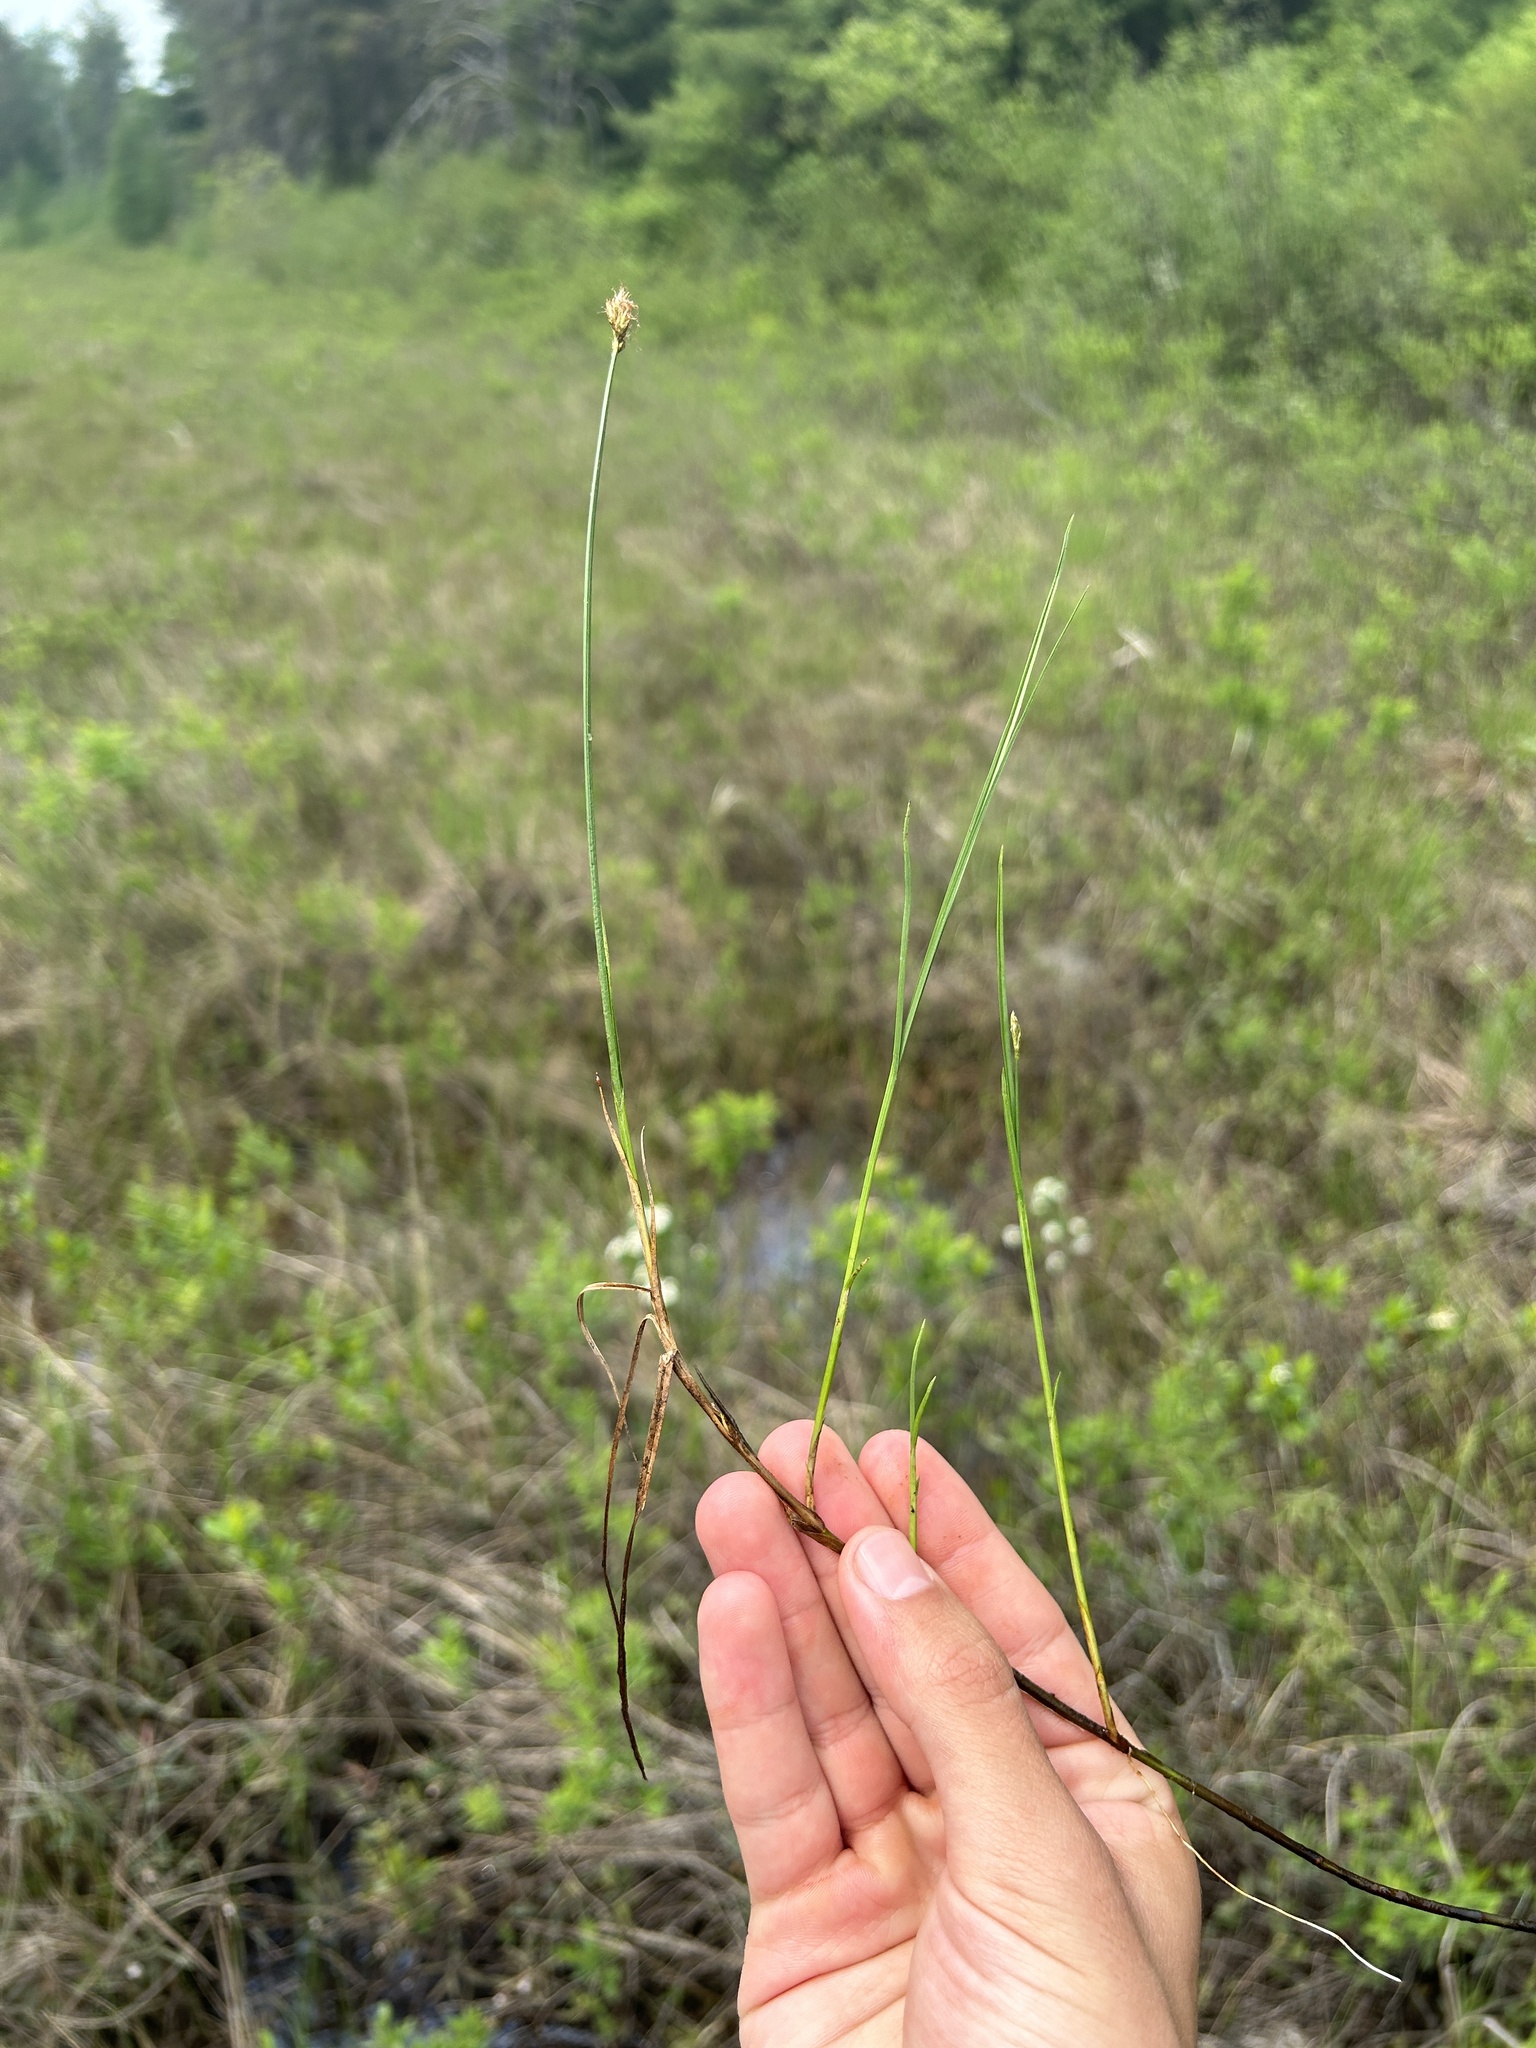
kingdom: Plantae
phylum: Tracheophyta
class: Liliopsida
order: Poales
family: Cyperaceae
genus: Carex
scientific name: Carex chordorrhiza
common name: String sedge
